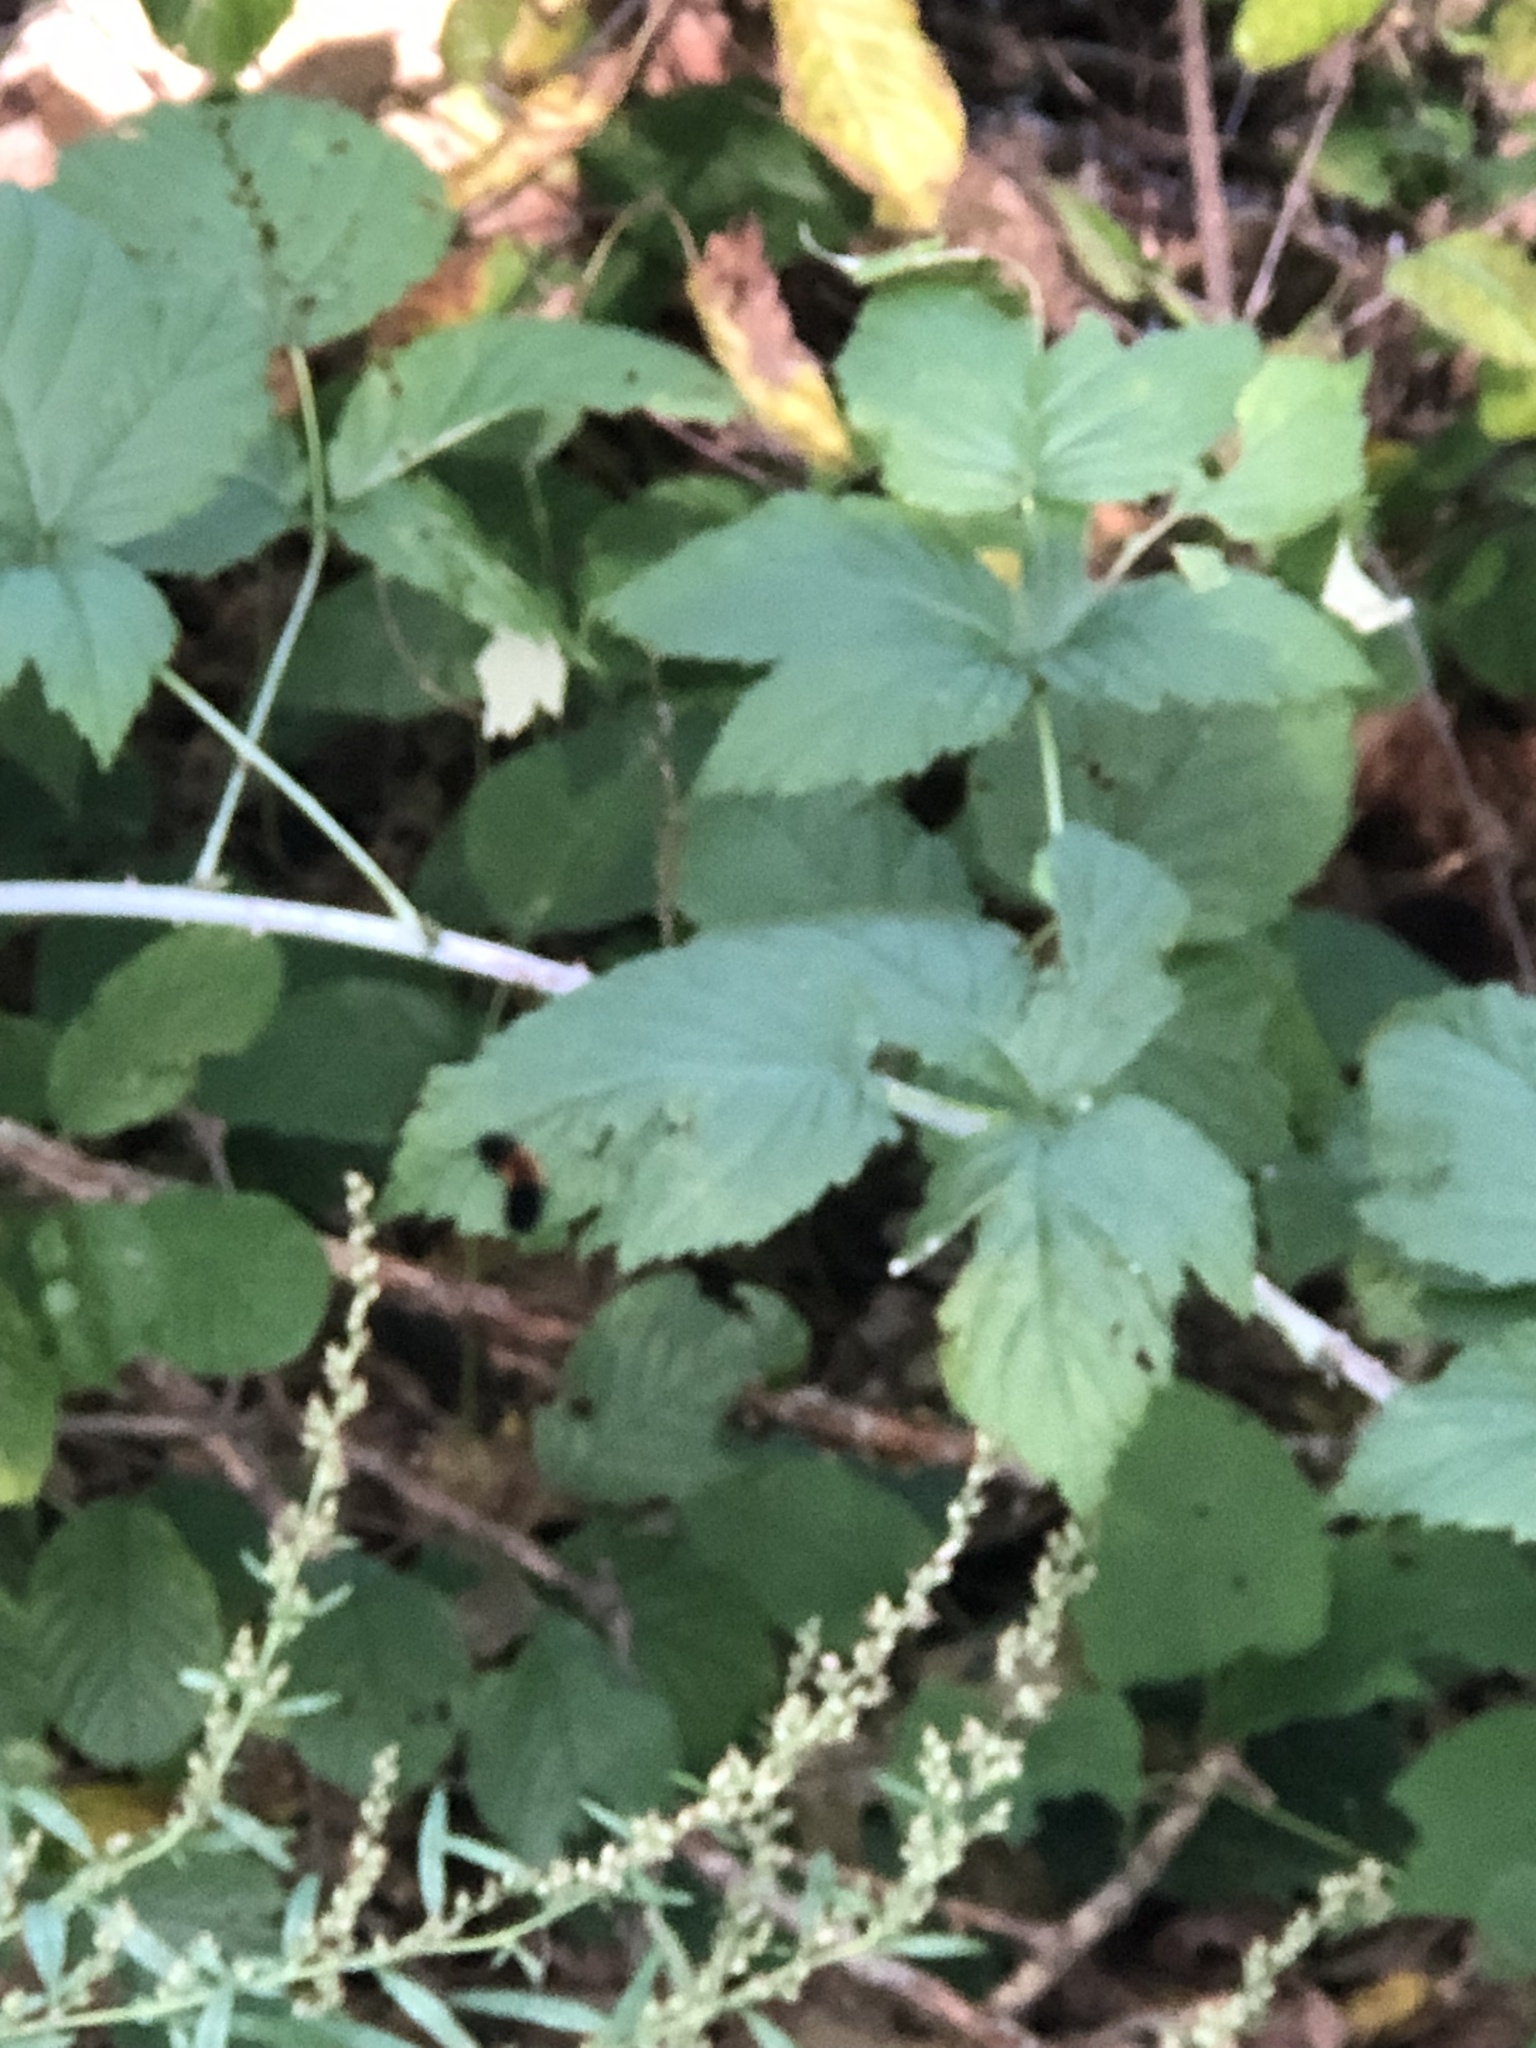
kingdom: Animalia
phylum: Arthropoda
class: Insecta
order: Lepidoptera
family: Erebidae
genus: Pyrrharctia
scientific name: Pyrrharctia isabella
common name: Isabella tiger moth
